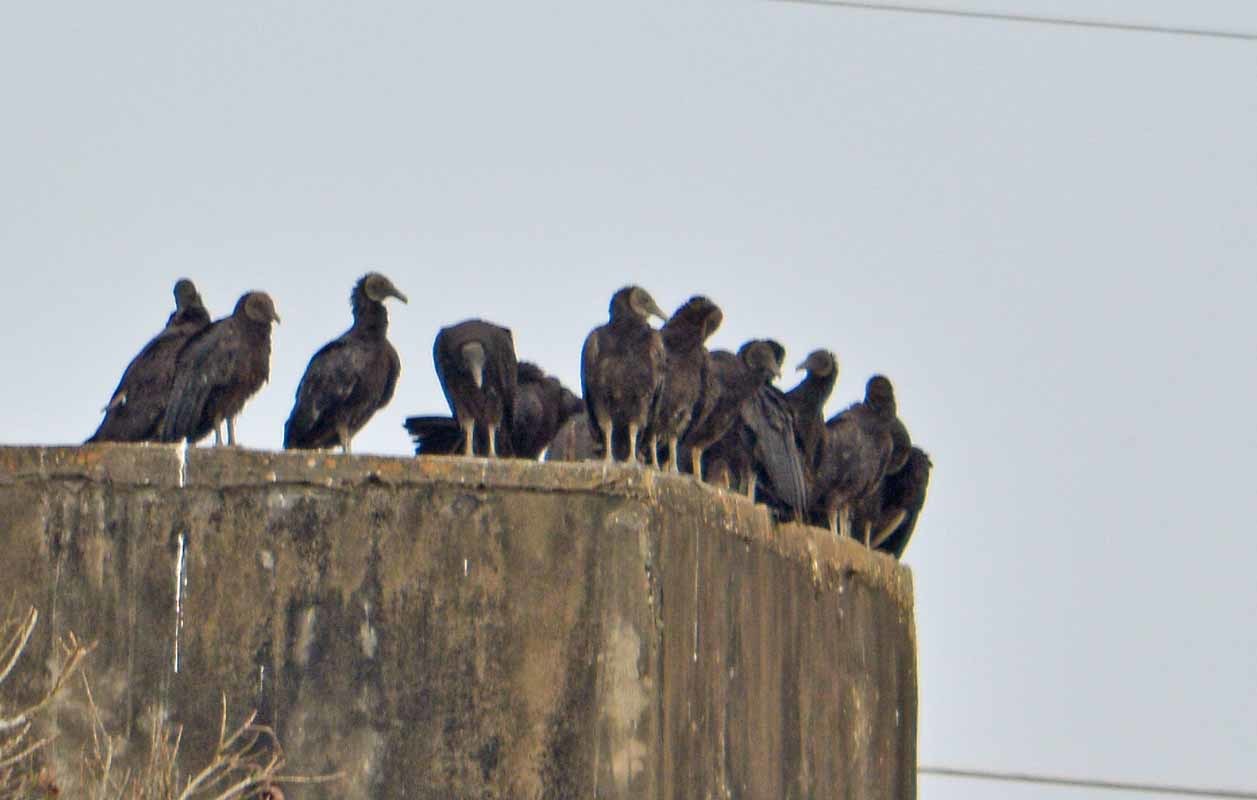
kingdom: Animalia
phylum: Chordata
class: Aves
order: Accipitriformes
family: Cathartidae
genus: Coragyps
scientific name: Coragyps atratus
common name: Black vulture
